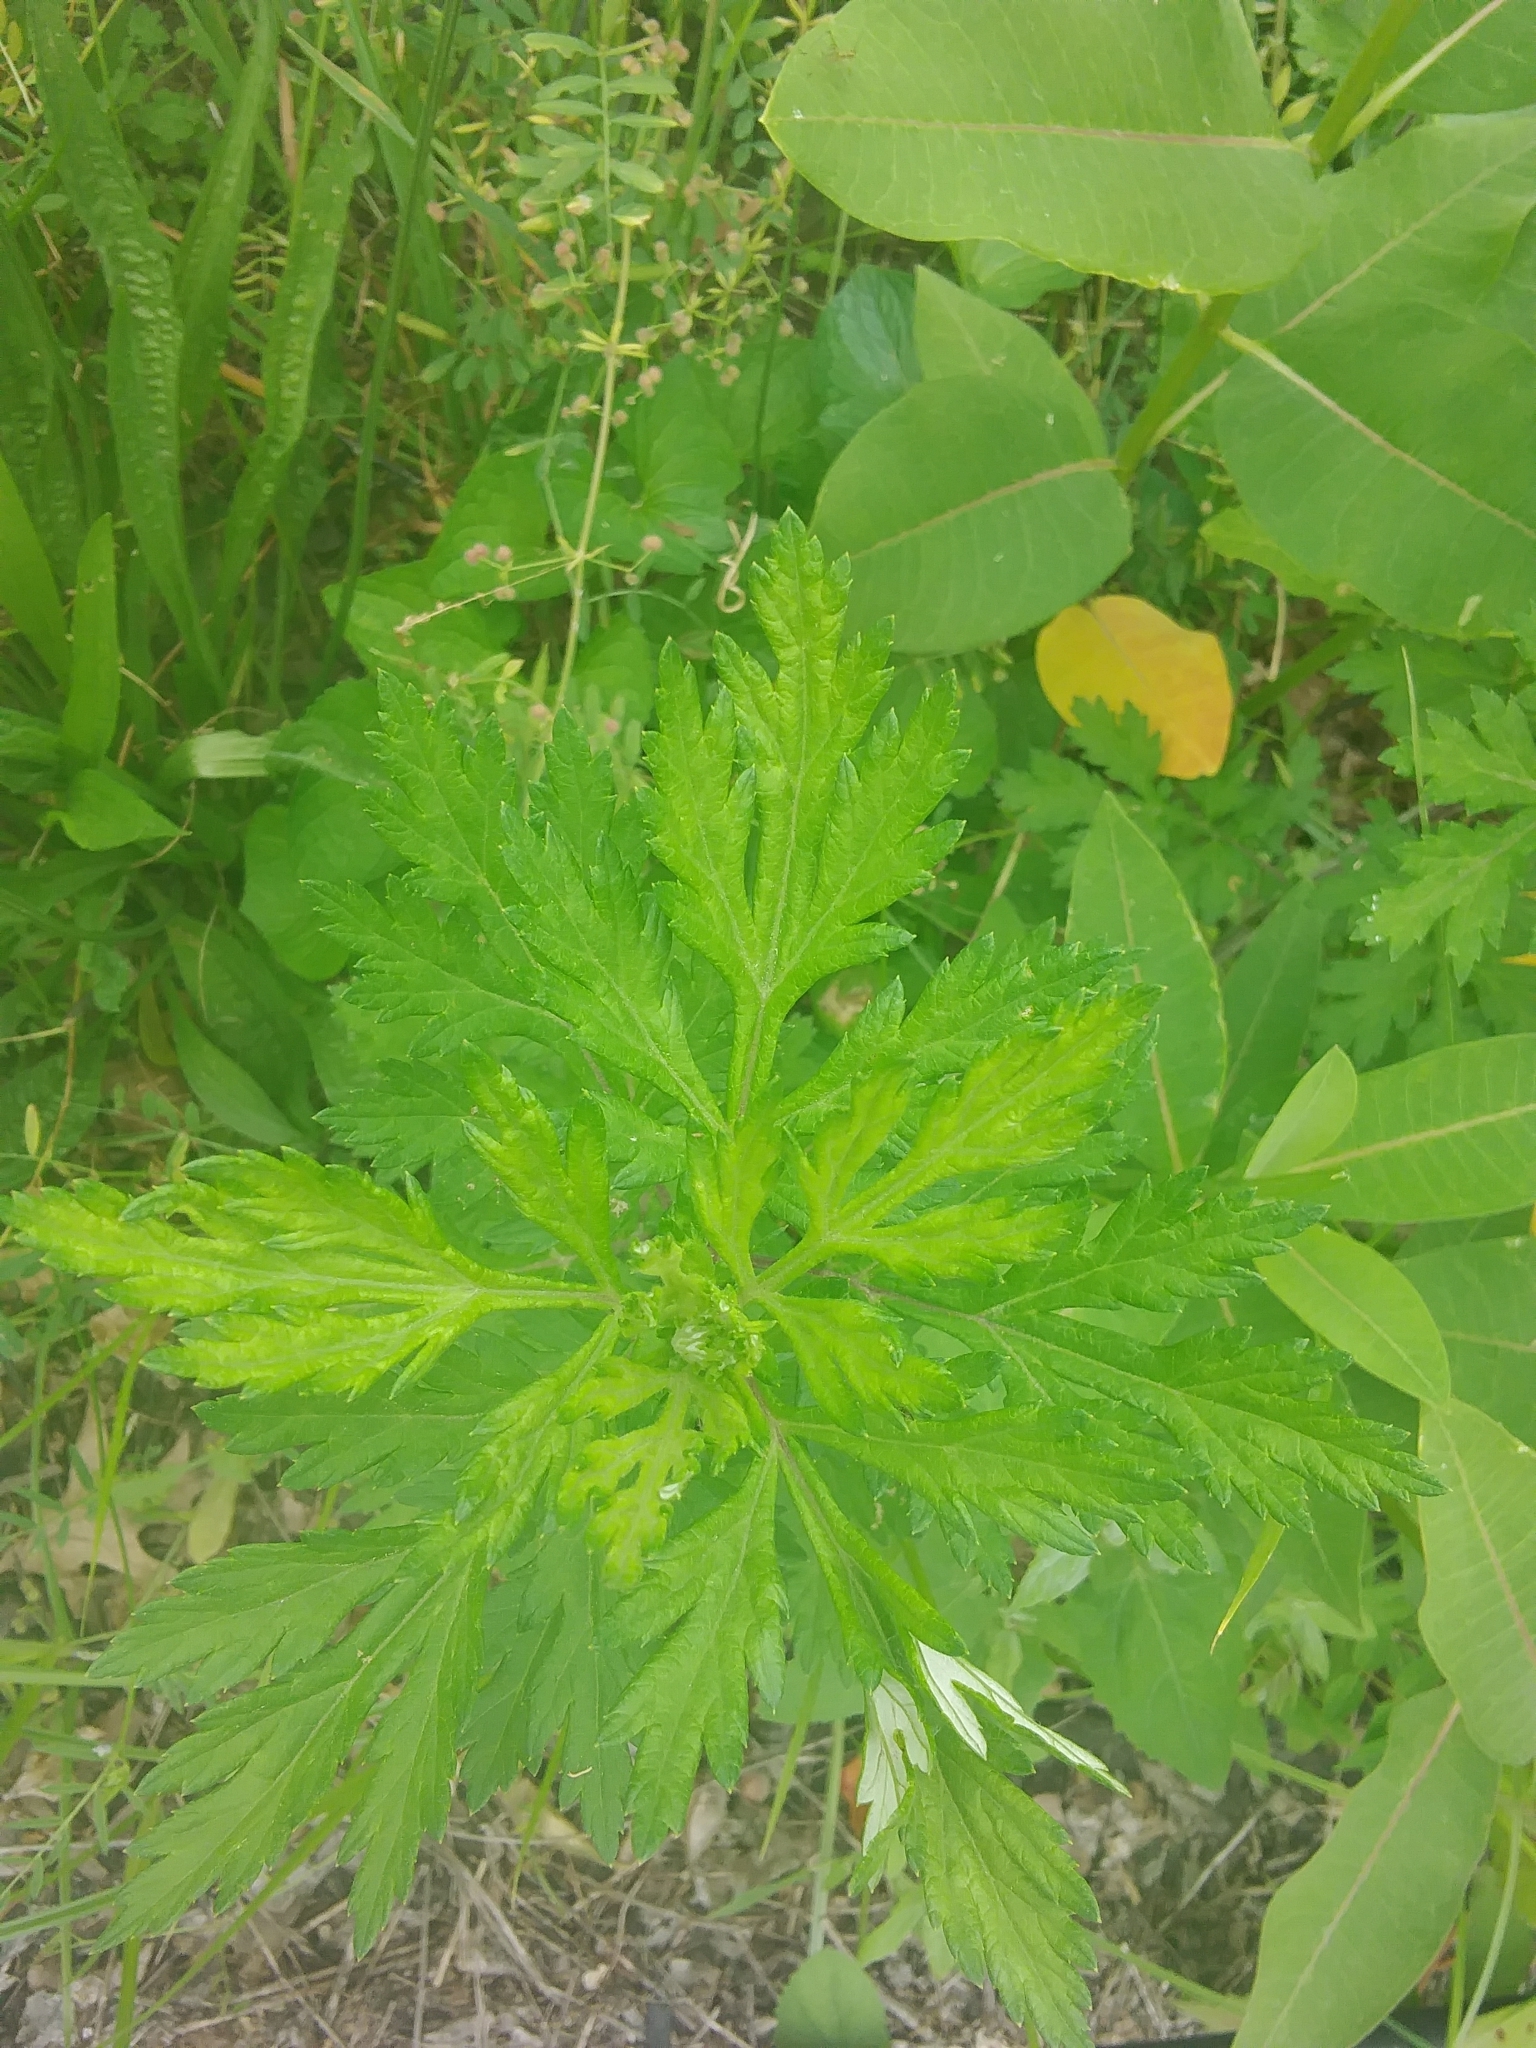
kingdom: Plantae
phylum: Tracheophyta
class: Magnoliopsida
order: Asterales
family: Asteraceae
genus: Artemisia
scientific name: Artemisia vulgaris
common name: Mugwort
